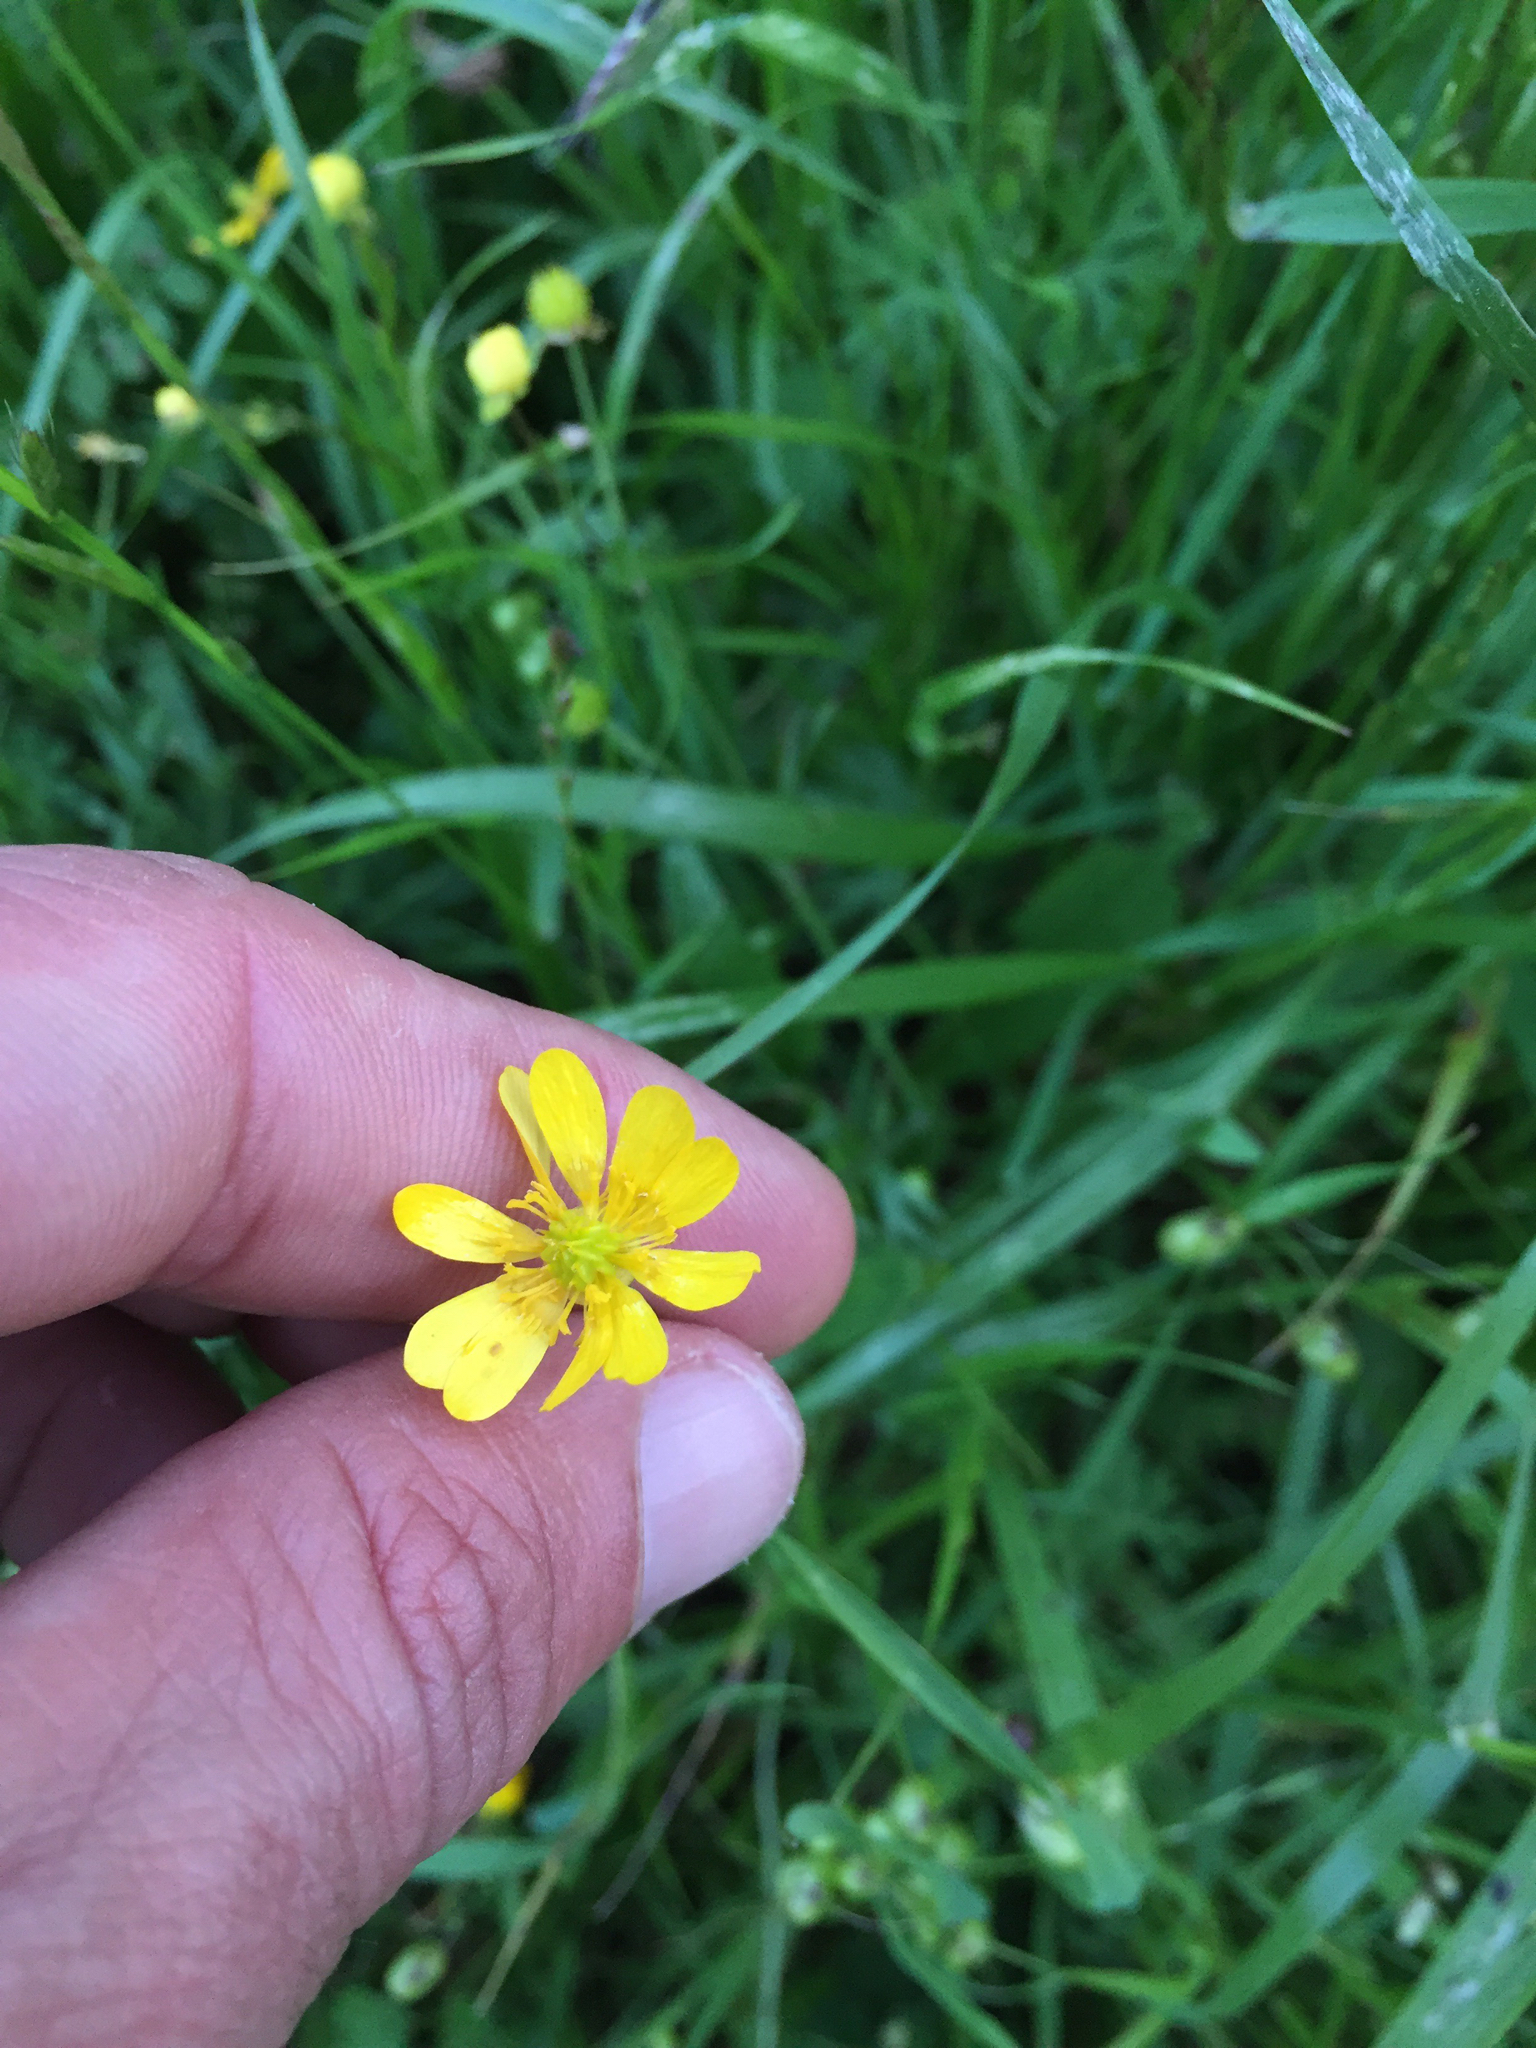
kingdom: Plantae
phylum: Tracheophyta
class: Magnoliopsida
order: Ranunculales
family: Ranunculaceae
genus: Ranunculus
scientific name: Ranunculus californicus
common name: California buttercup
